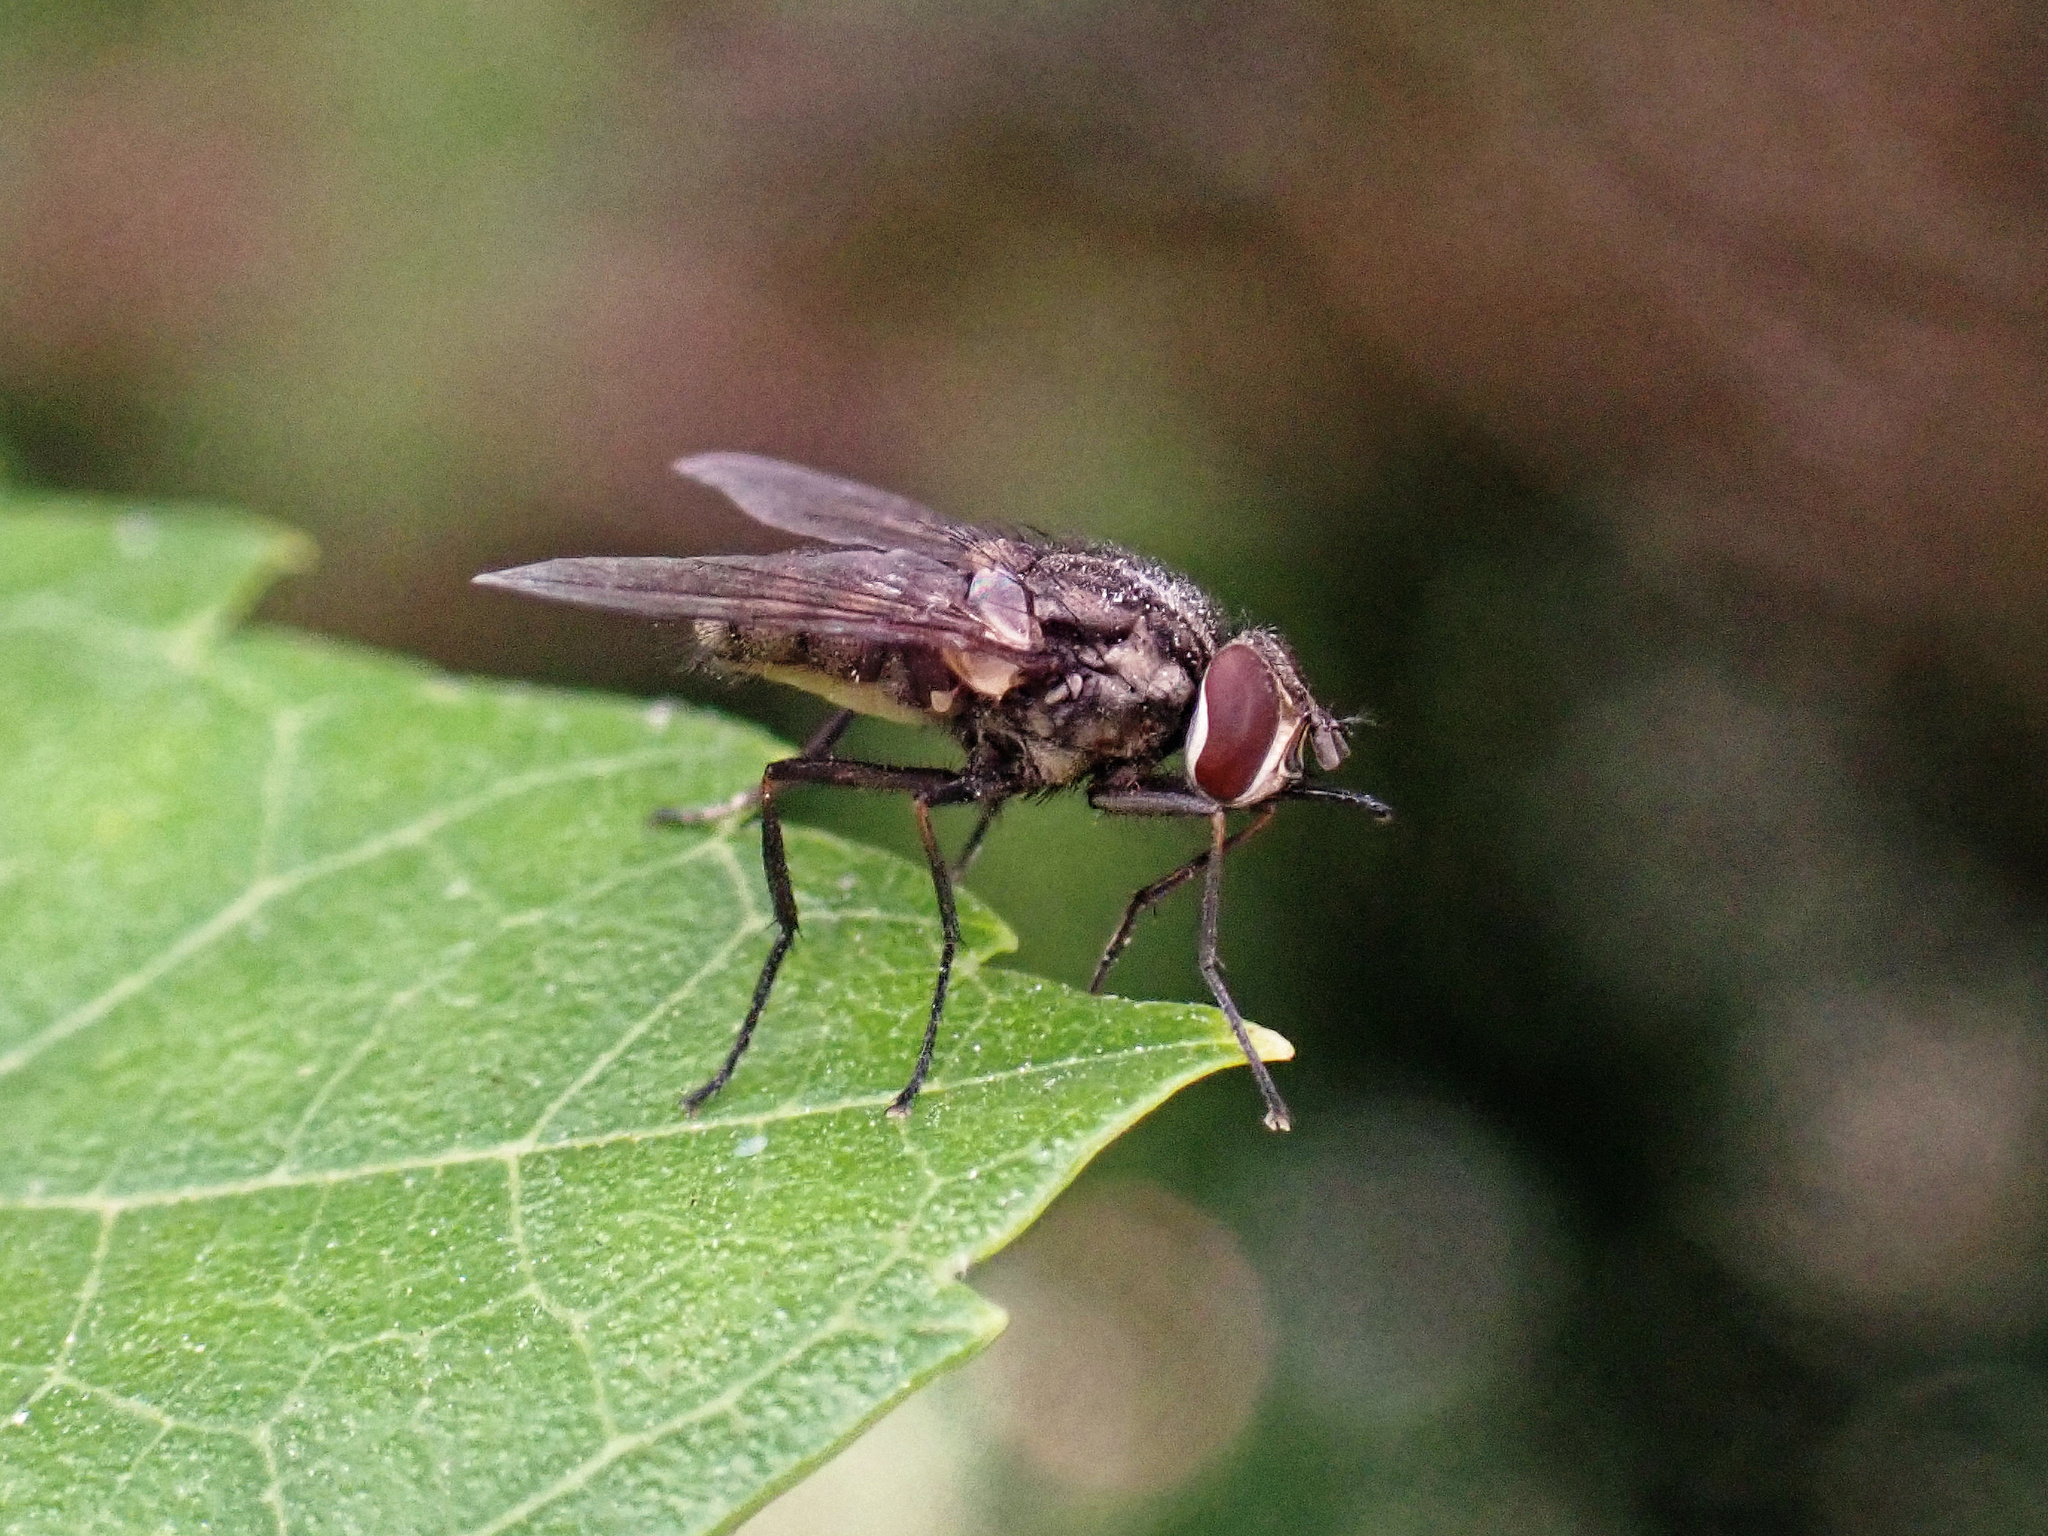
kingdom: Animalia
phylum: Arthropoda
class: Insecta
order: Diptera
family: Muscidae
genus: Stomoxys
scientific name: Stomoxys calcitrans
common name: Stable fly
